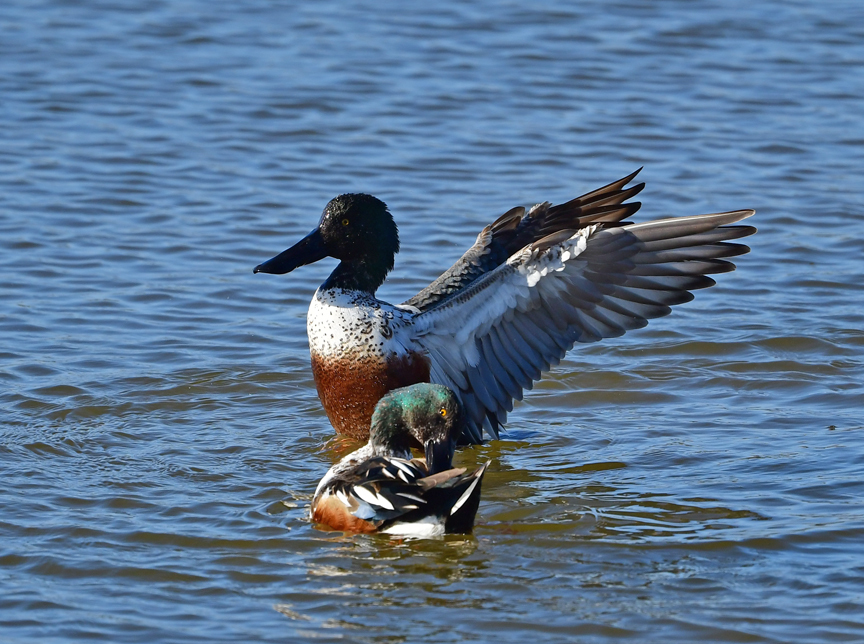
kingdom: Animalia
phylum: Chordata
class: Aves
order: Anseriformes
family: Anatidae
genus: Spatula
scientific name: Spatula clypeata
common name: Northern shoveler
